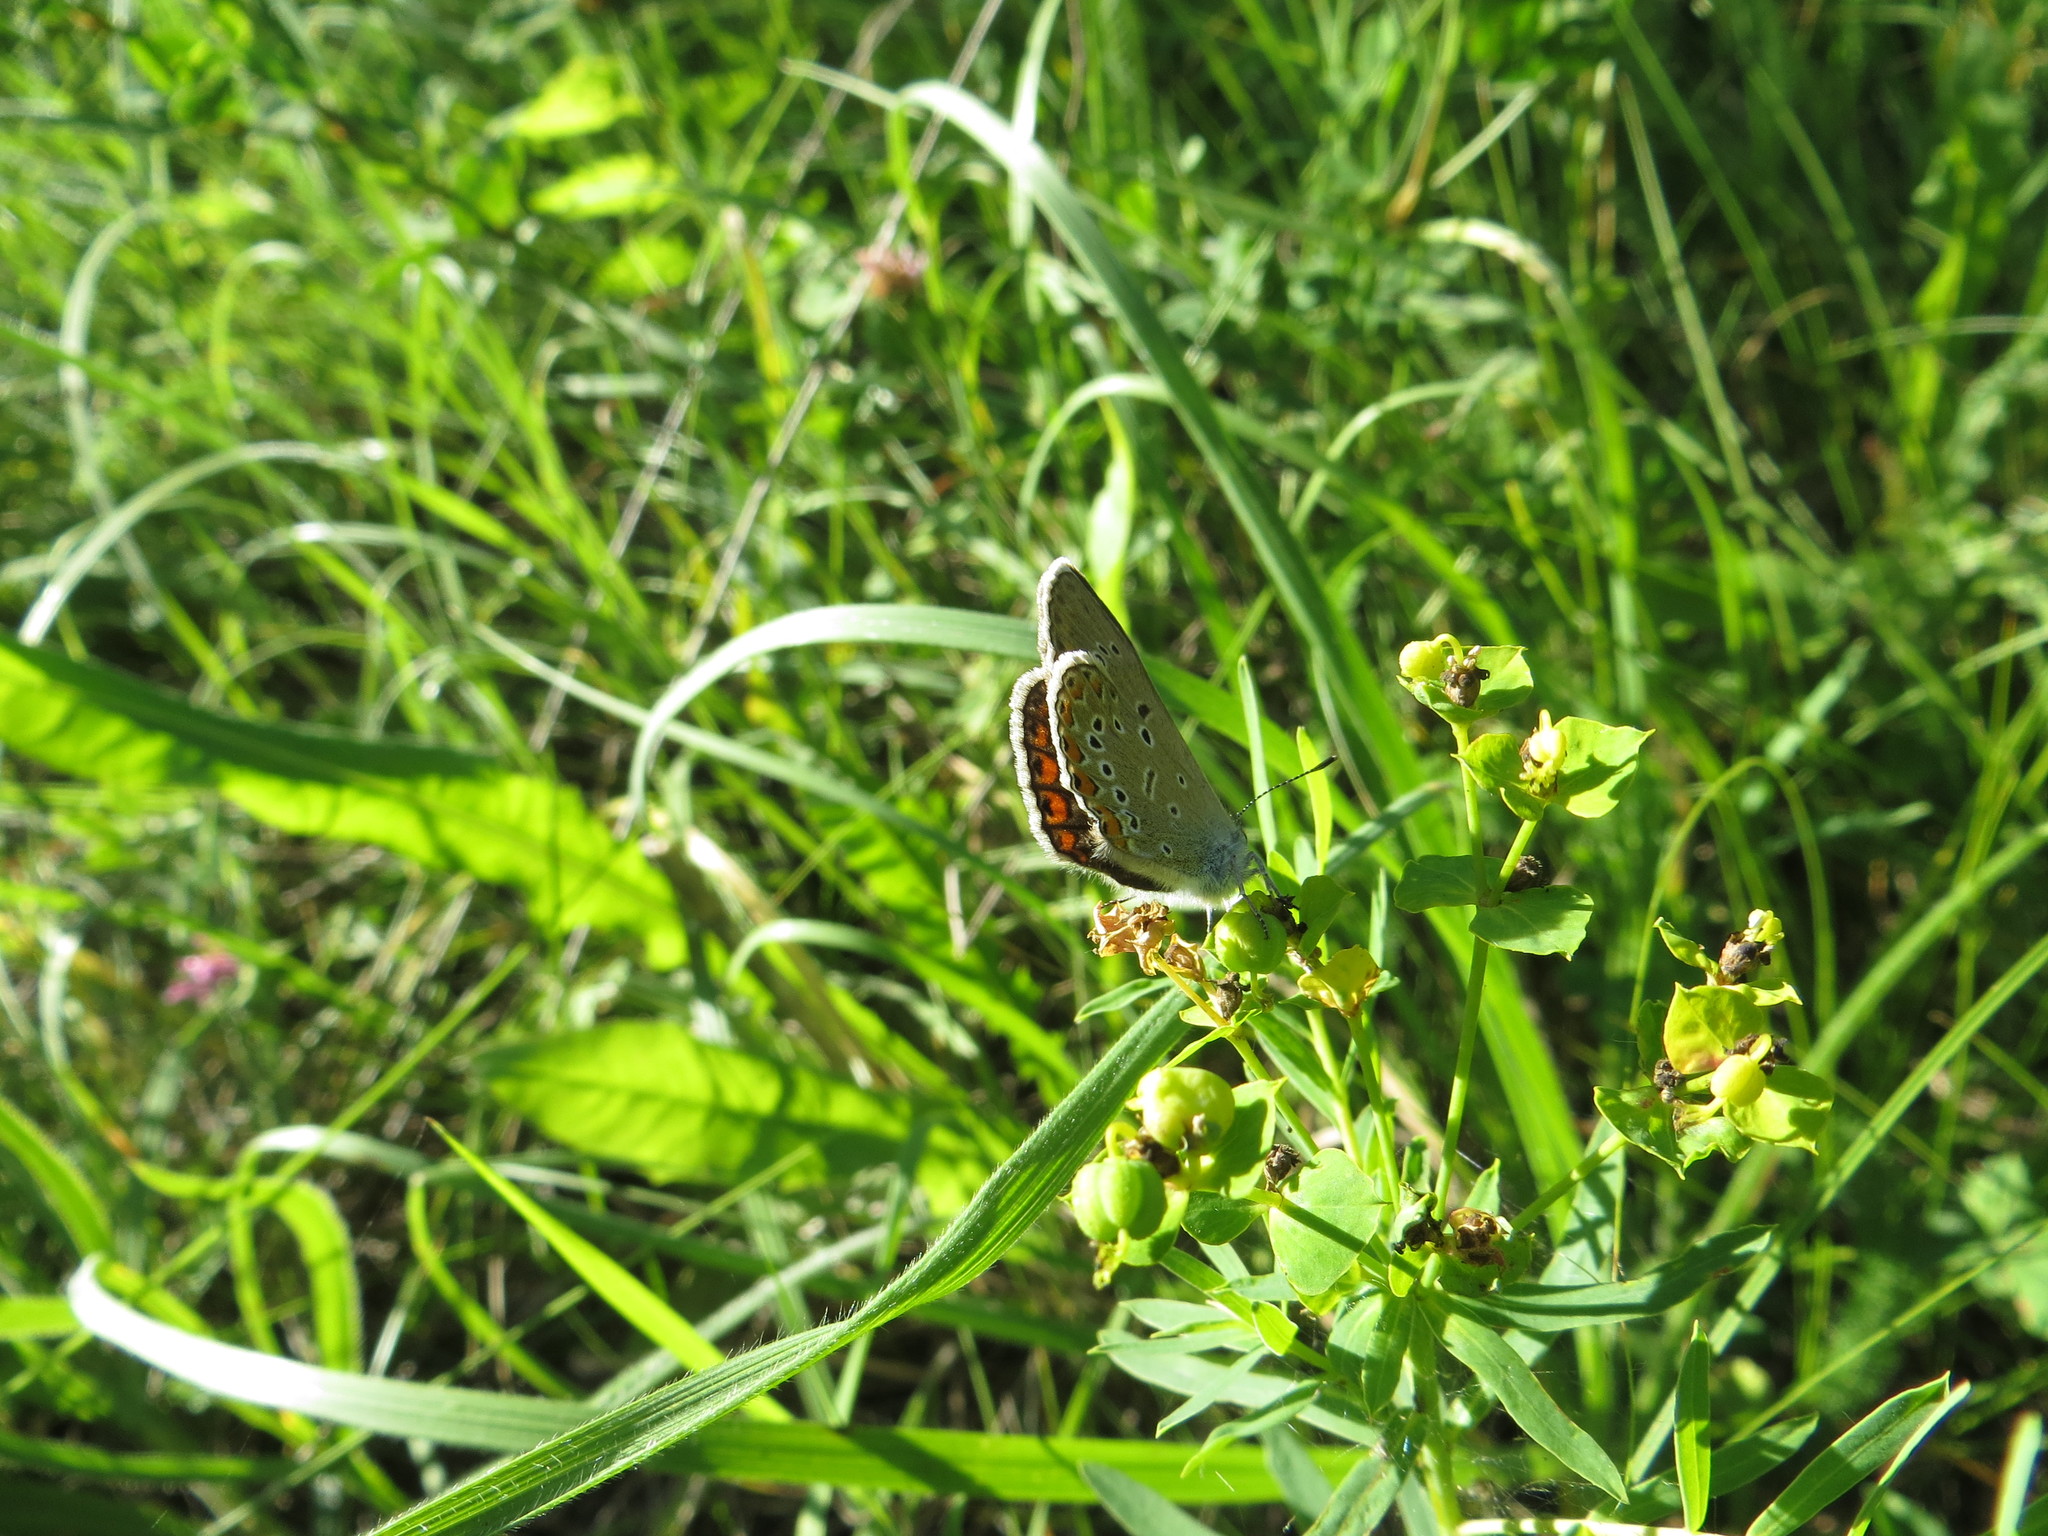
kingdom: Animalia
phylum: Arthropoda
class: Insecta
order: Lepidoptera
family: Lycaenidae
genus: Plebejus
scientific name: Plebejus amanda
